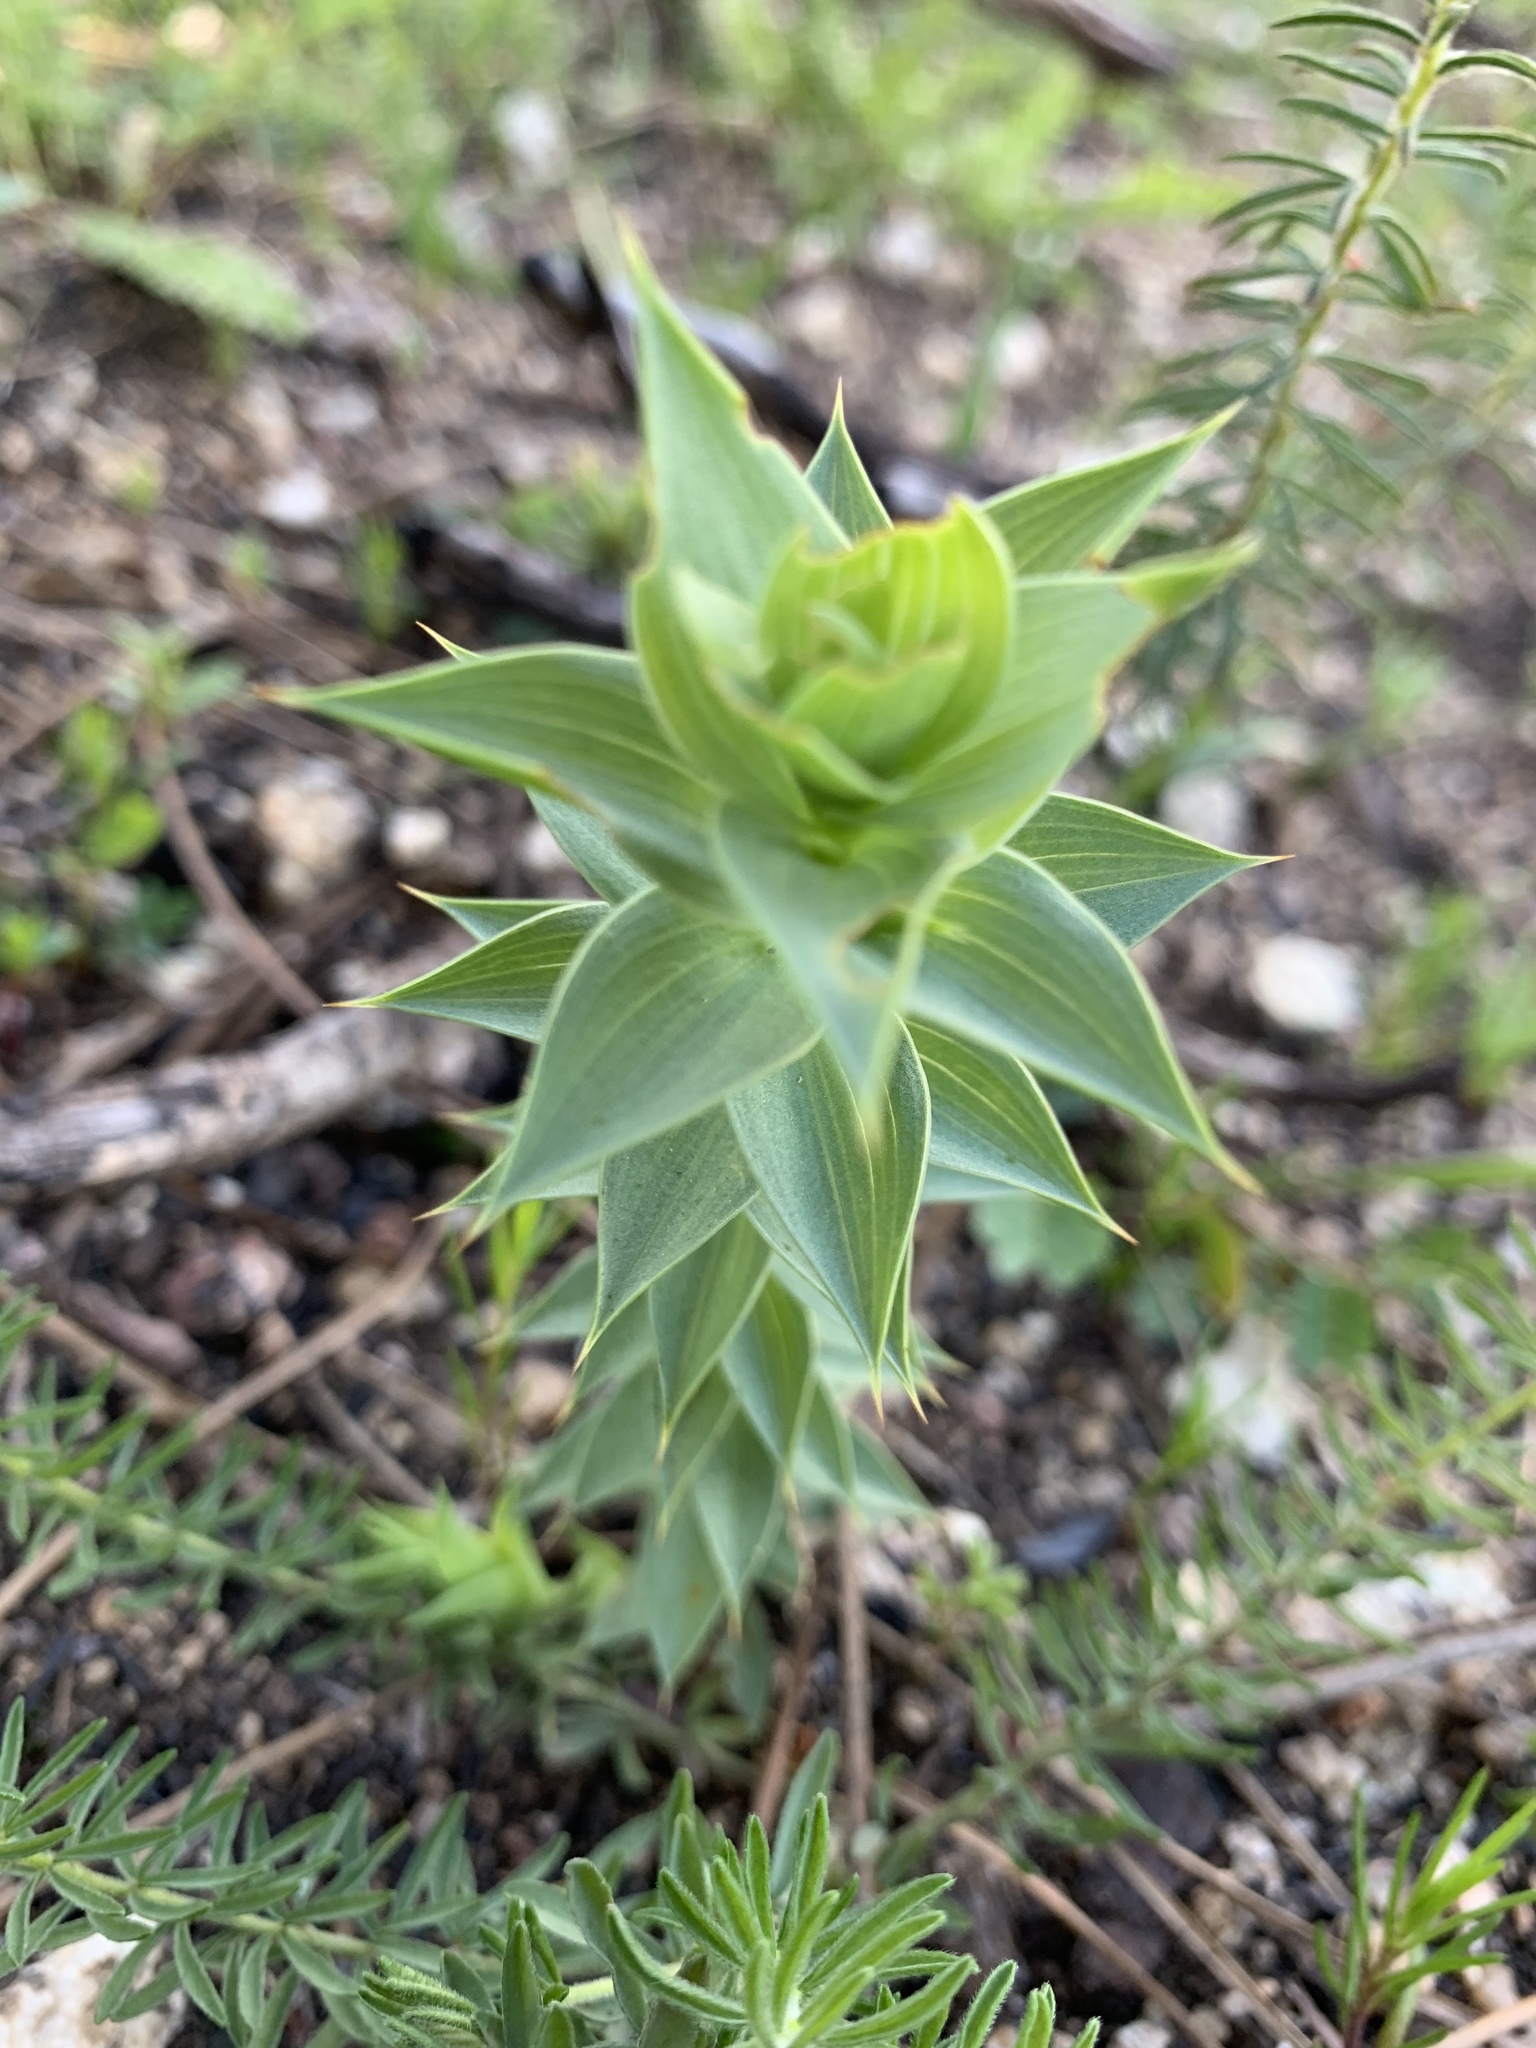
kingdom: Plantae
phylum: Tracheophyta
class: Magnoliopsida
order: Fabales
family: Fabaceae
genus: Aspalathus
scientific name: Aspalathus cordata
